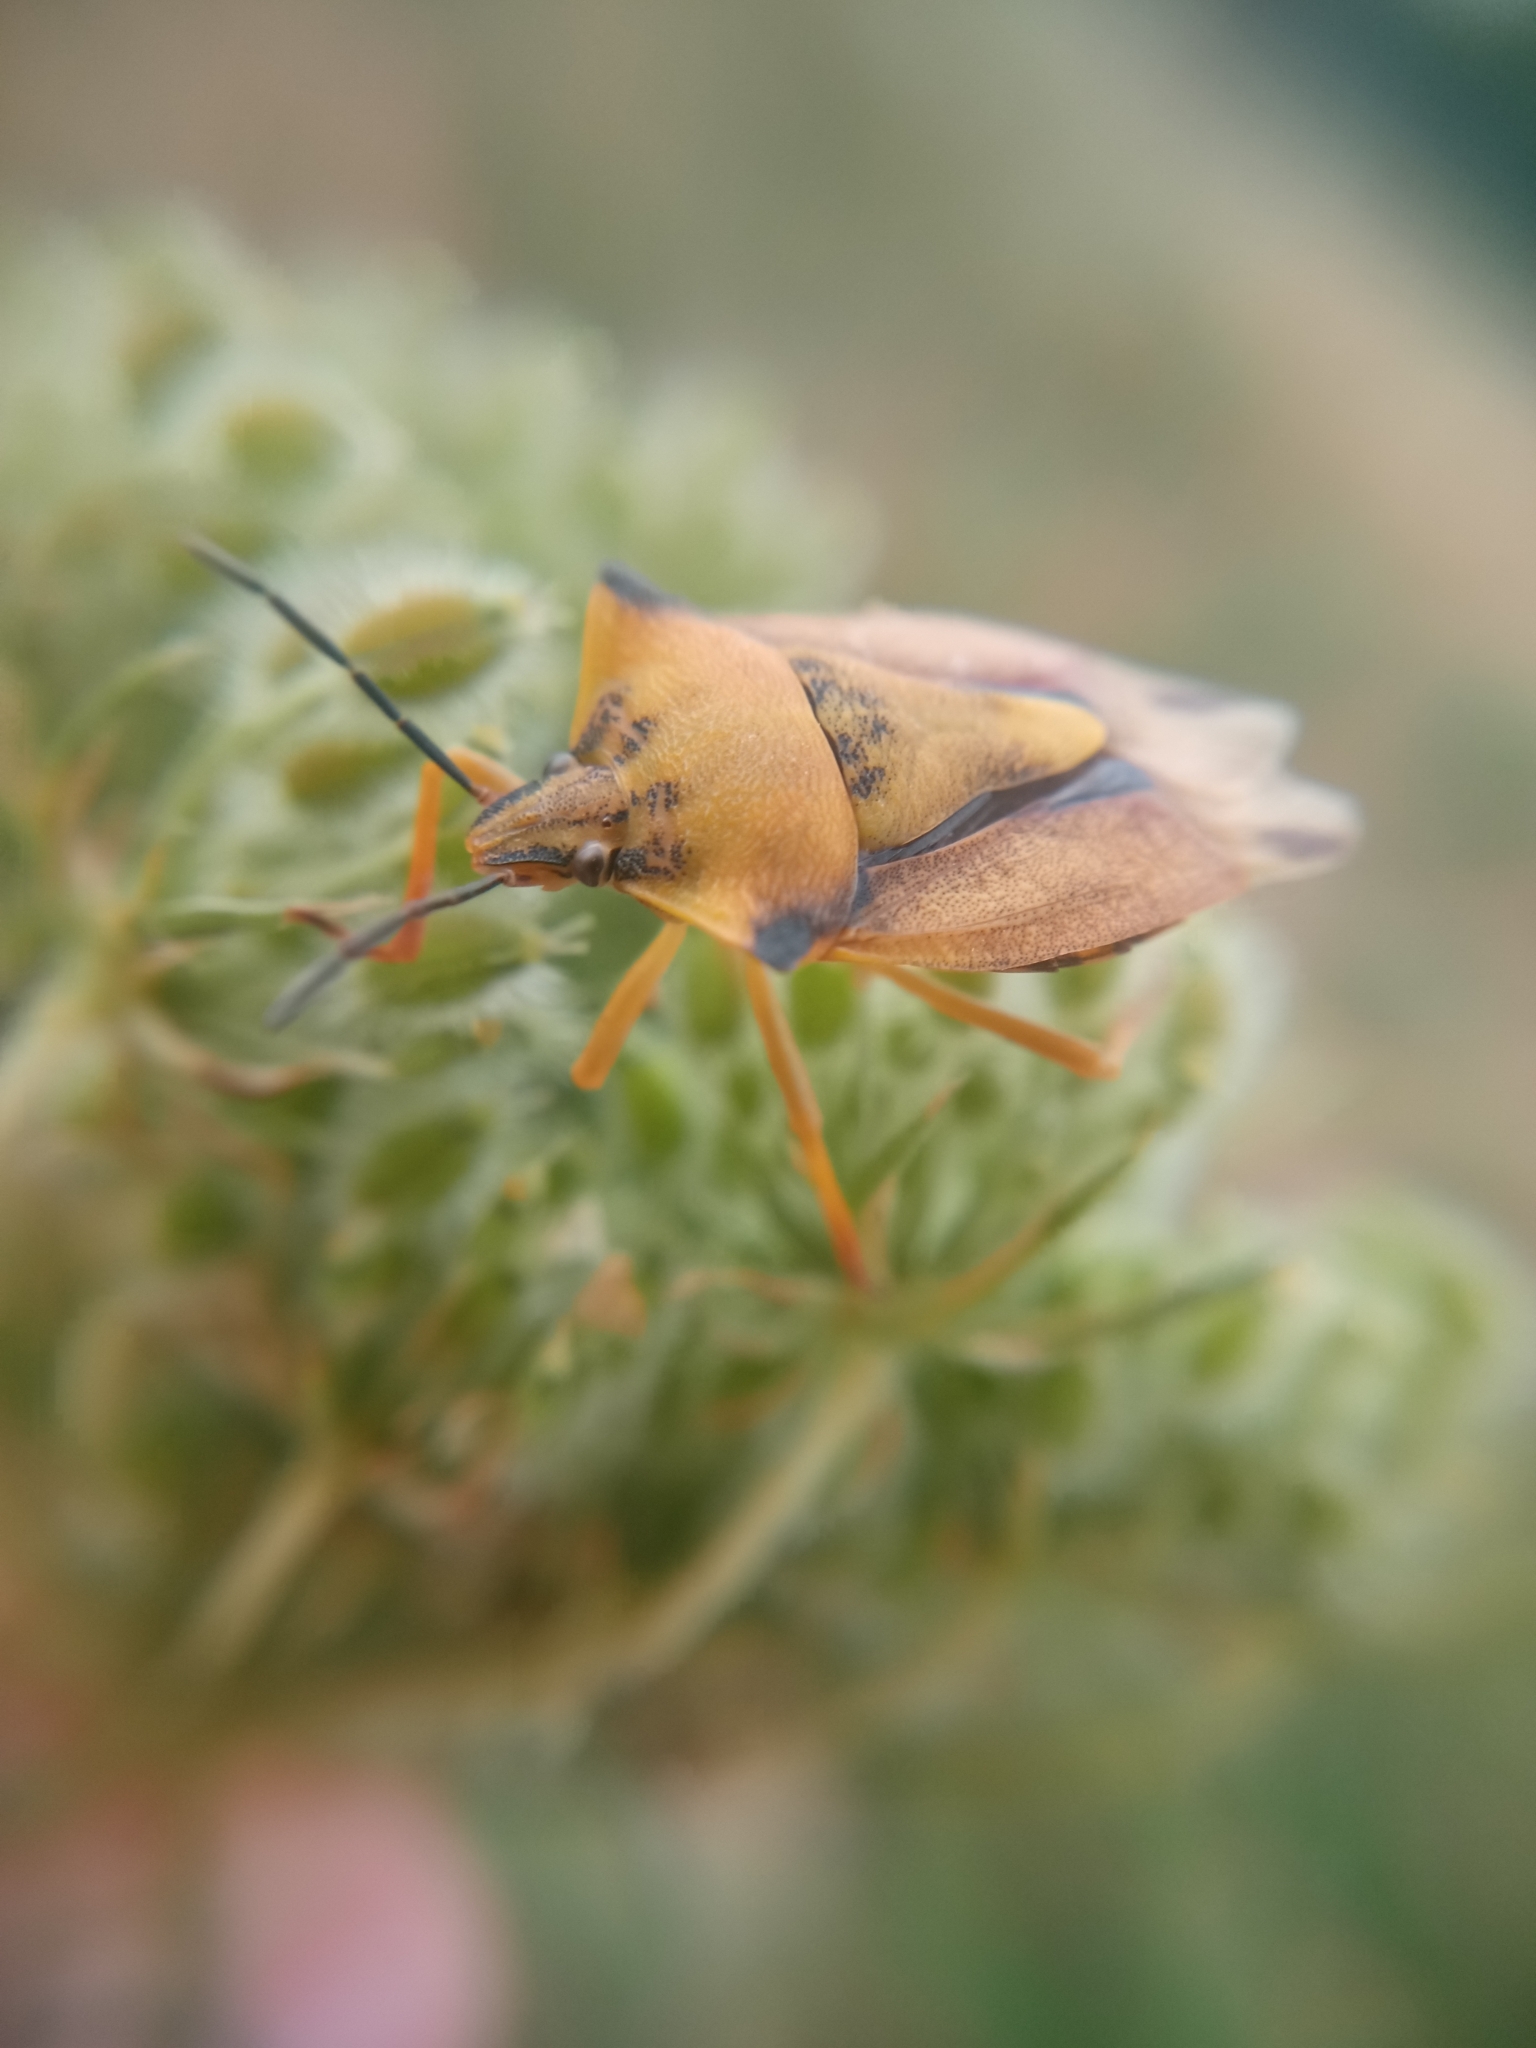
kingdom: Animalia
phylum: Arthropoda
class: Insecta
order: Hemiptera
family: Pentatomidae
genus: Carpocoris
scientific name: Carpocoris fuscispinus
